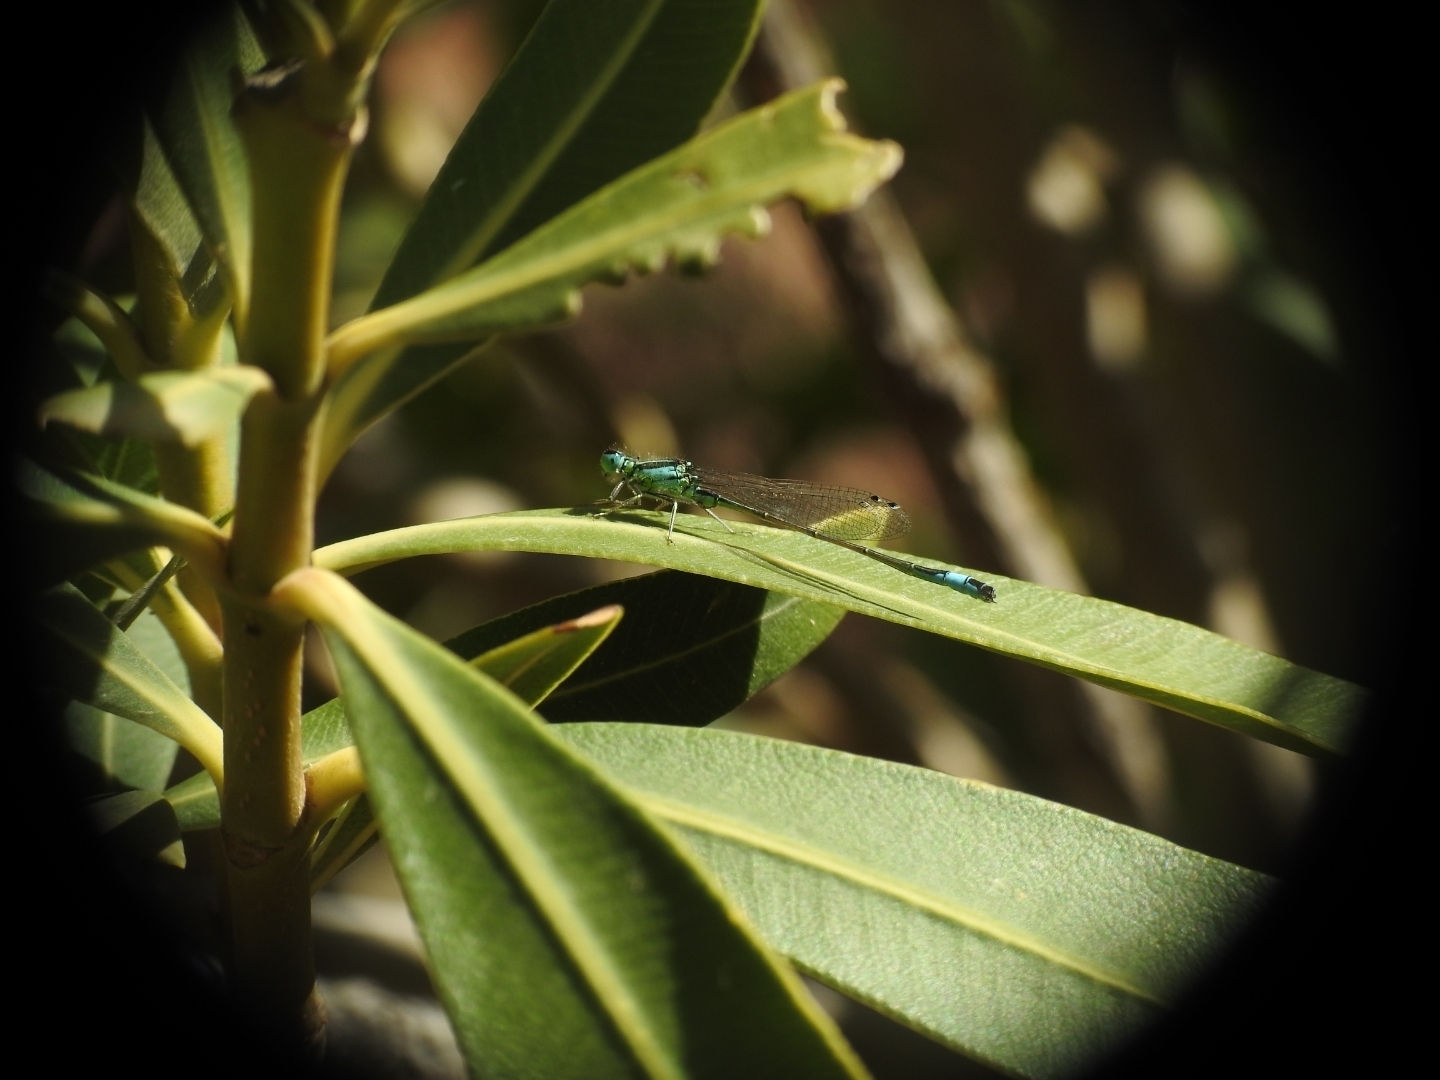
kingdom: Animalia
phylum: Arthropoda
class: Insecta
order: Odonata
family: Coenagrionidae
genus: Ischnura
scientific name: Ischnura elegans
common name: Blue-tailed damselfly
